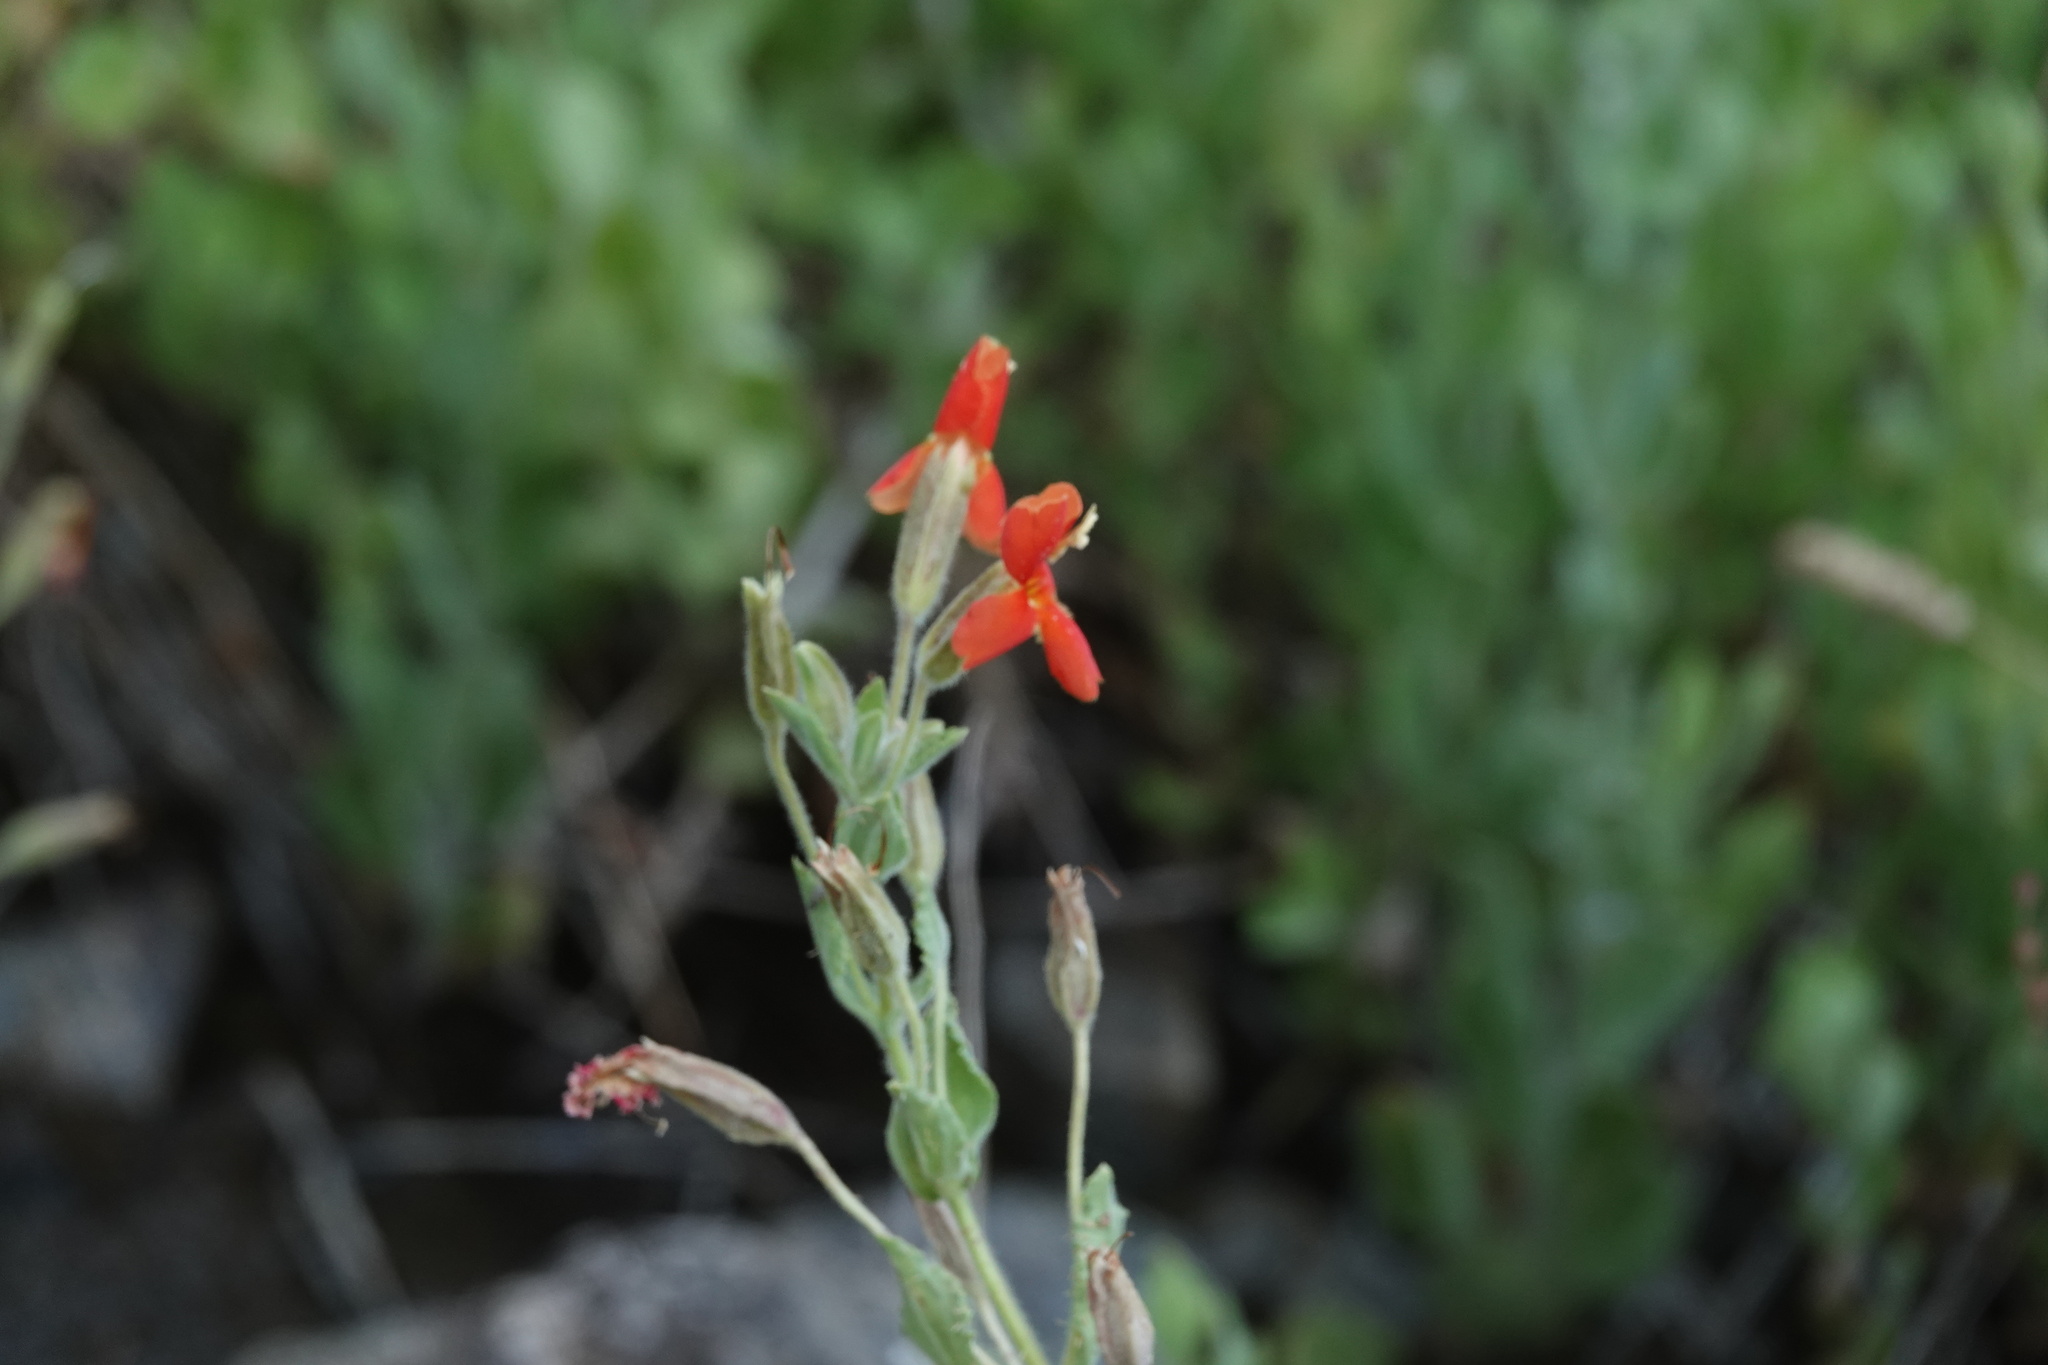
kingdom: Plantae
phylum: Tracheophyta
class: Magnoliopsida
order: Lamiales
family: Phrymaceae
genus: Erythranthe
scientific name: Erythranthe cardinalis
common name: Scarlet monkey-flower
